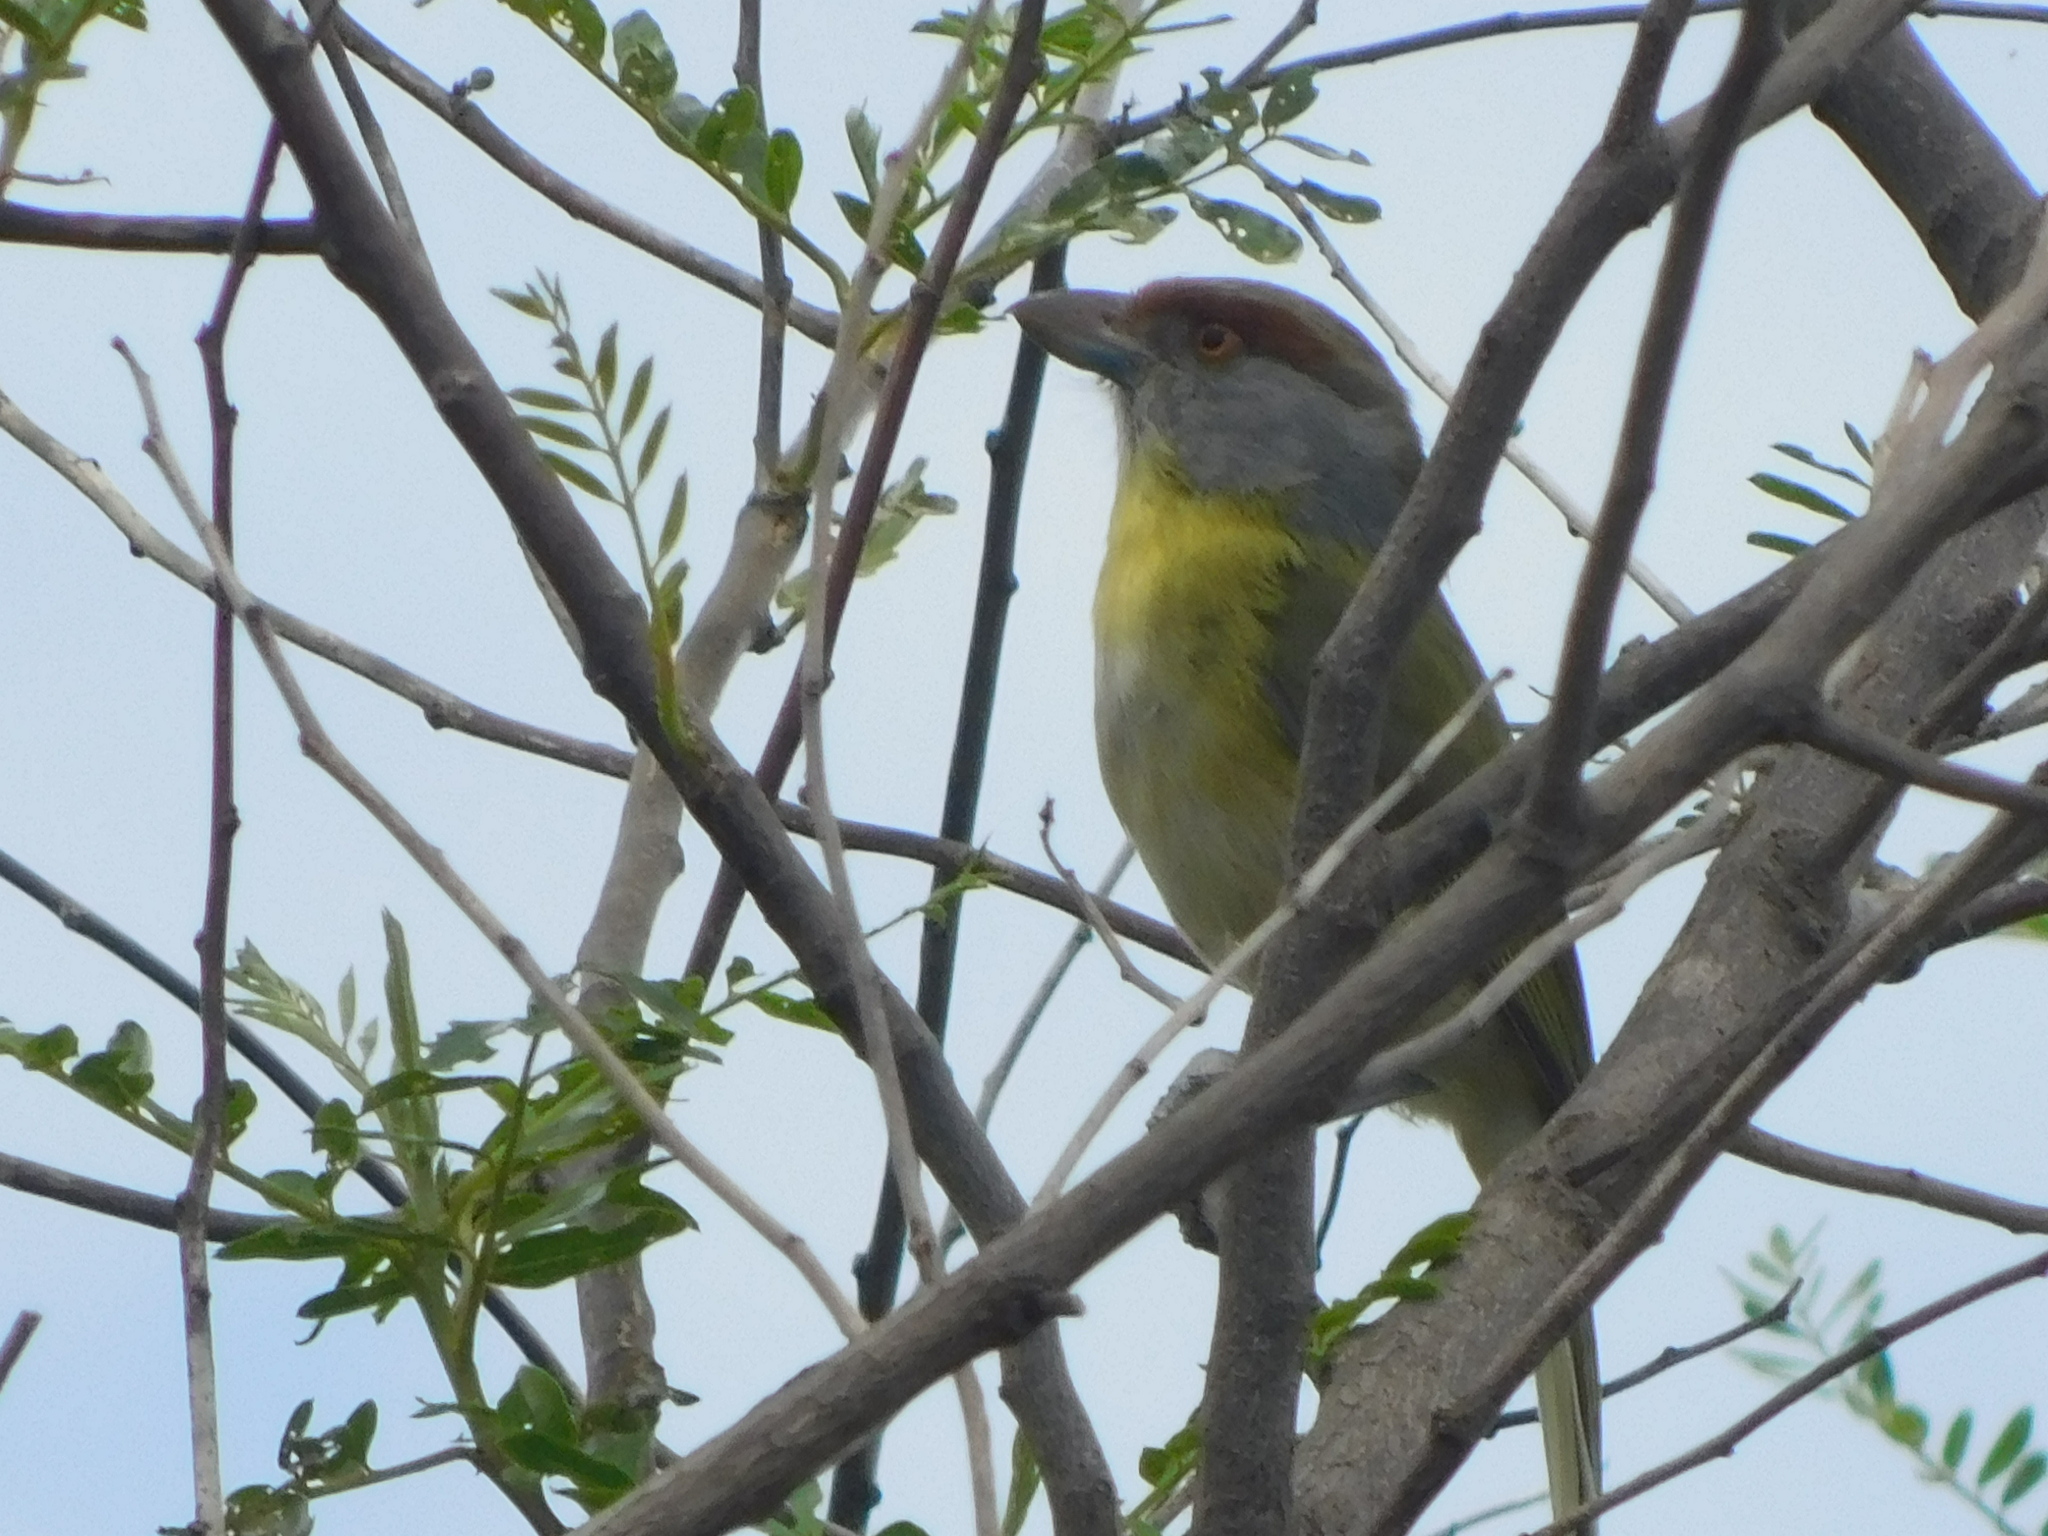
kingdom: Animalia
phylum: Chordata
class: Aves
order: Passeriformes
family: Vireonidae
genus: Cyclarhis
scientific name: Cyclarhis gujanensis
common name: Rufous-browed peppershrike
